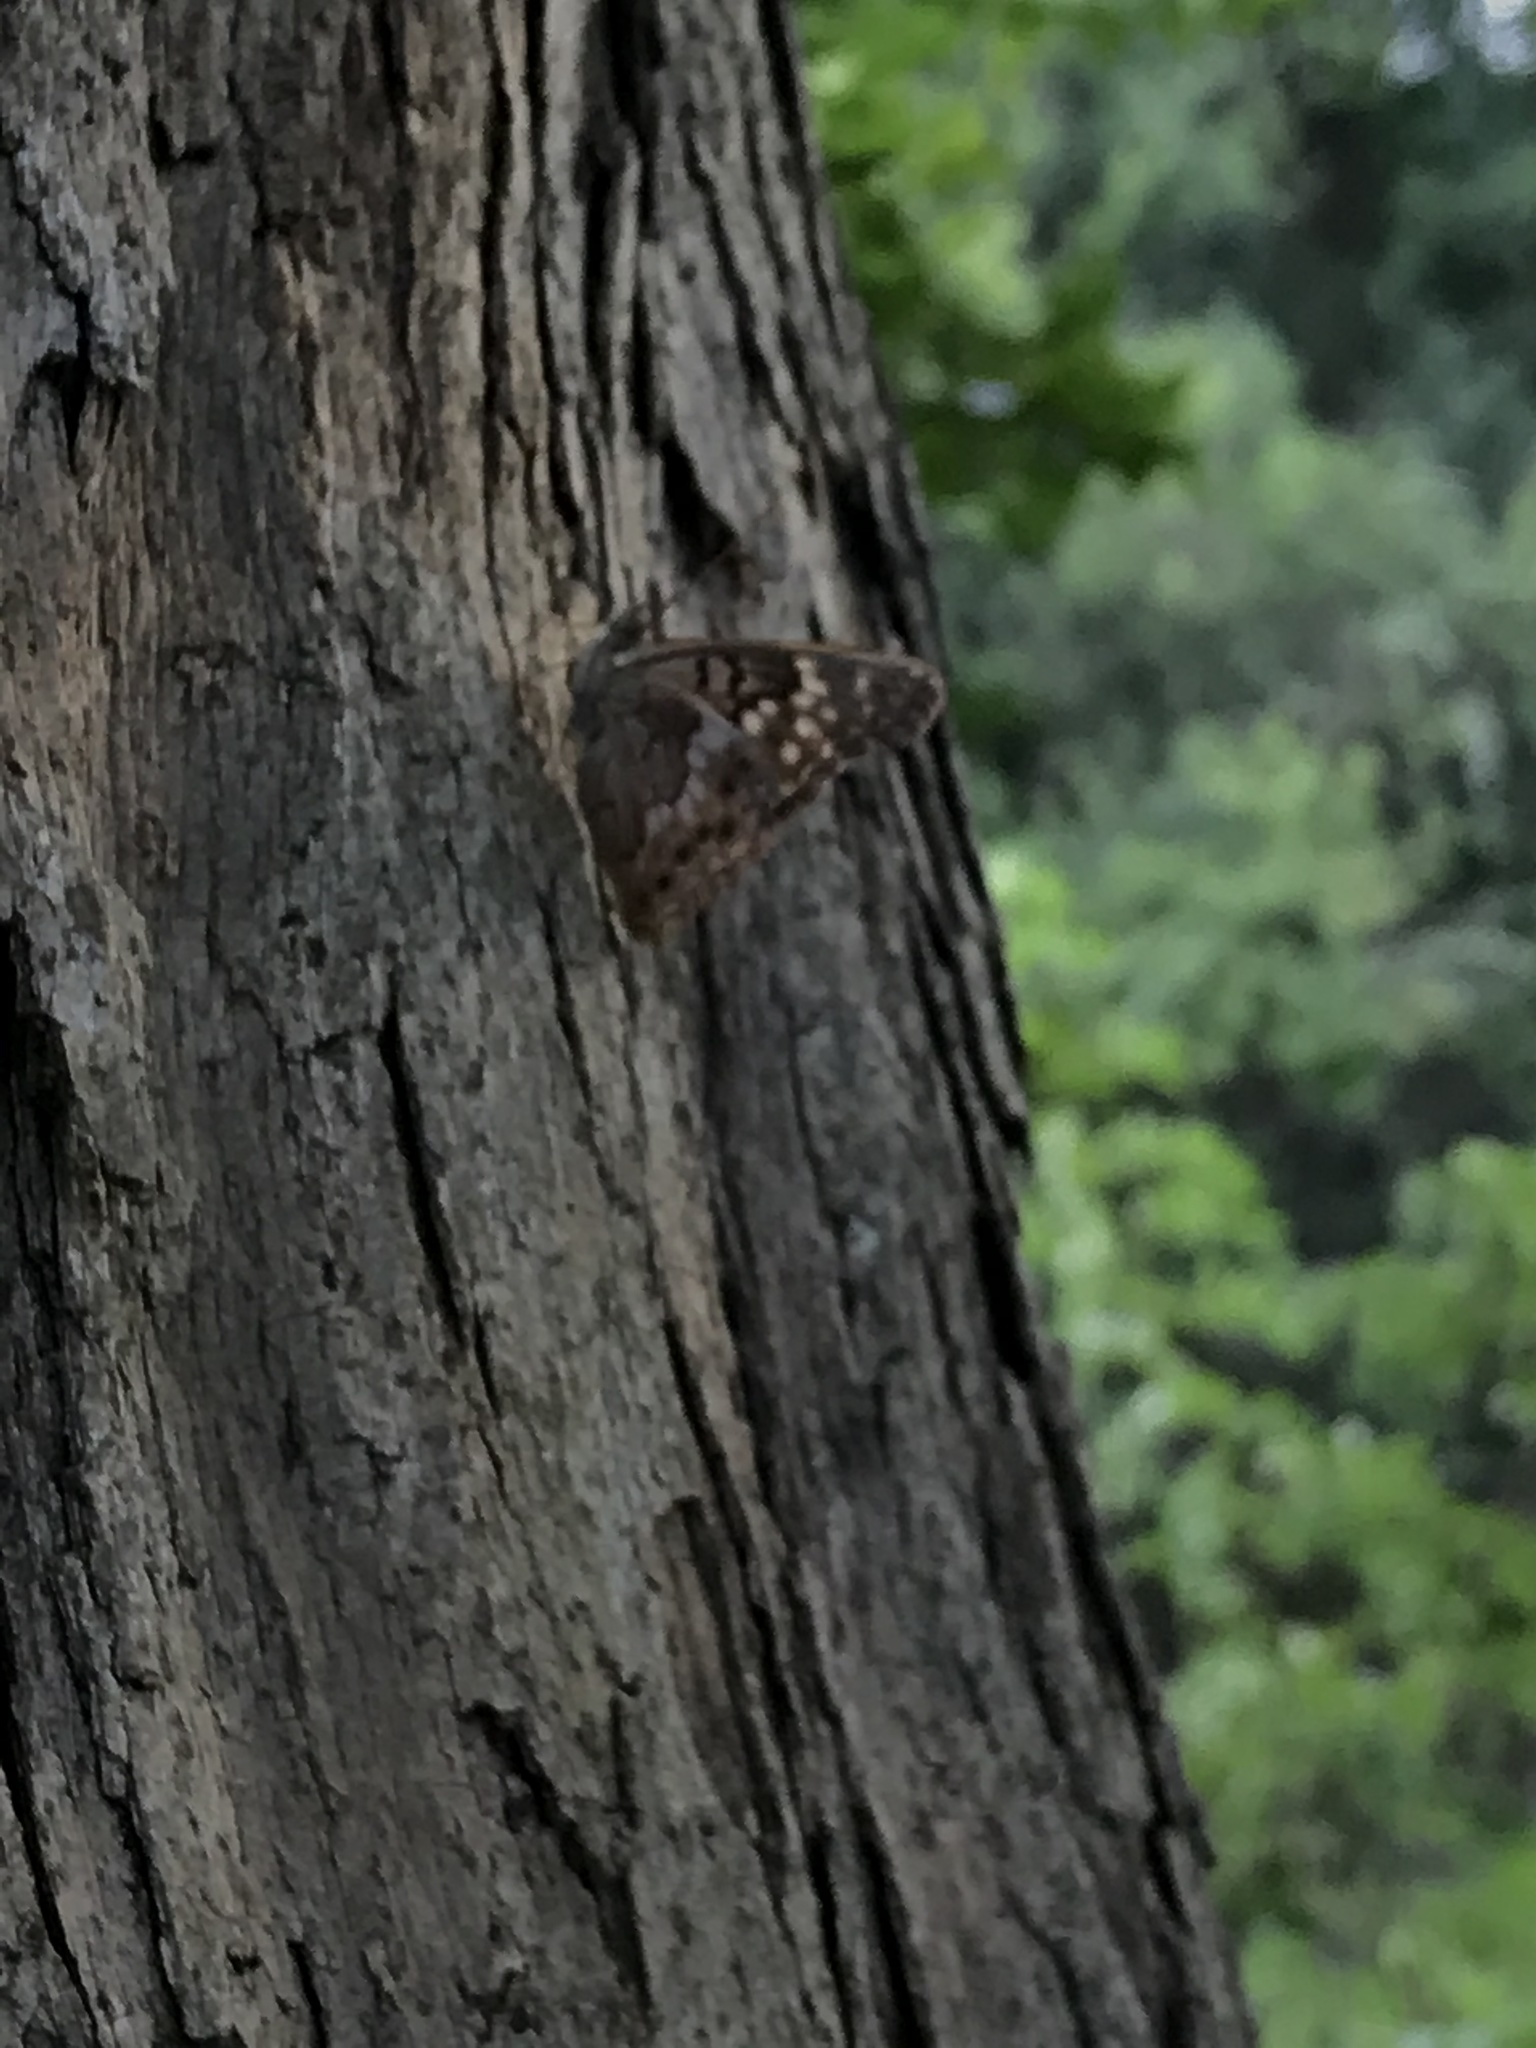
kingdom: Animalia
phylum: Arthropoda
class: Insecta
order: Lepidoptera
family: Nymphalidae
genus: Asterocampa
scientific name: Asterocampa clyton
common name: Tawny emperor
